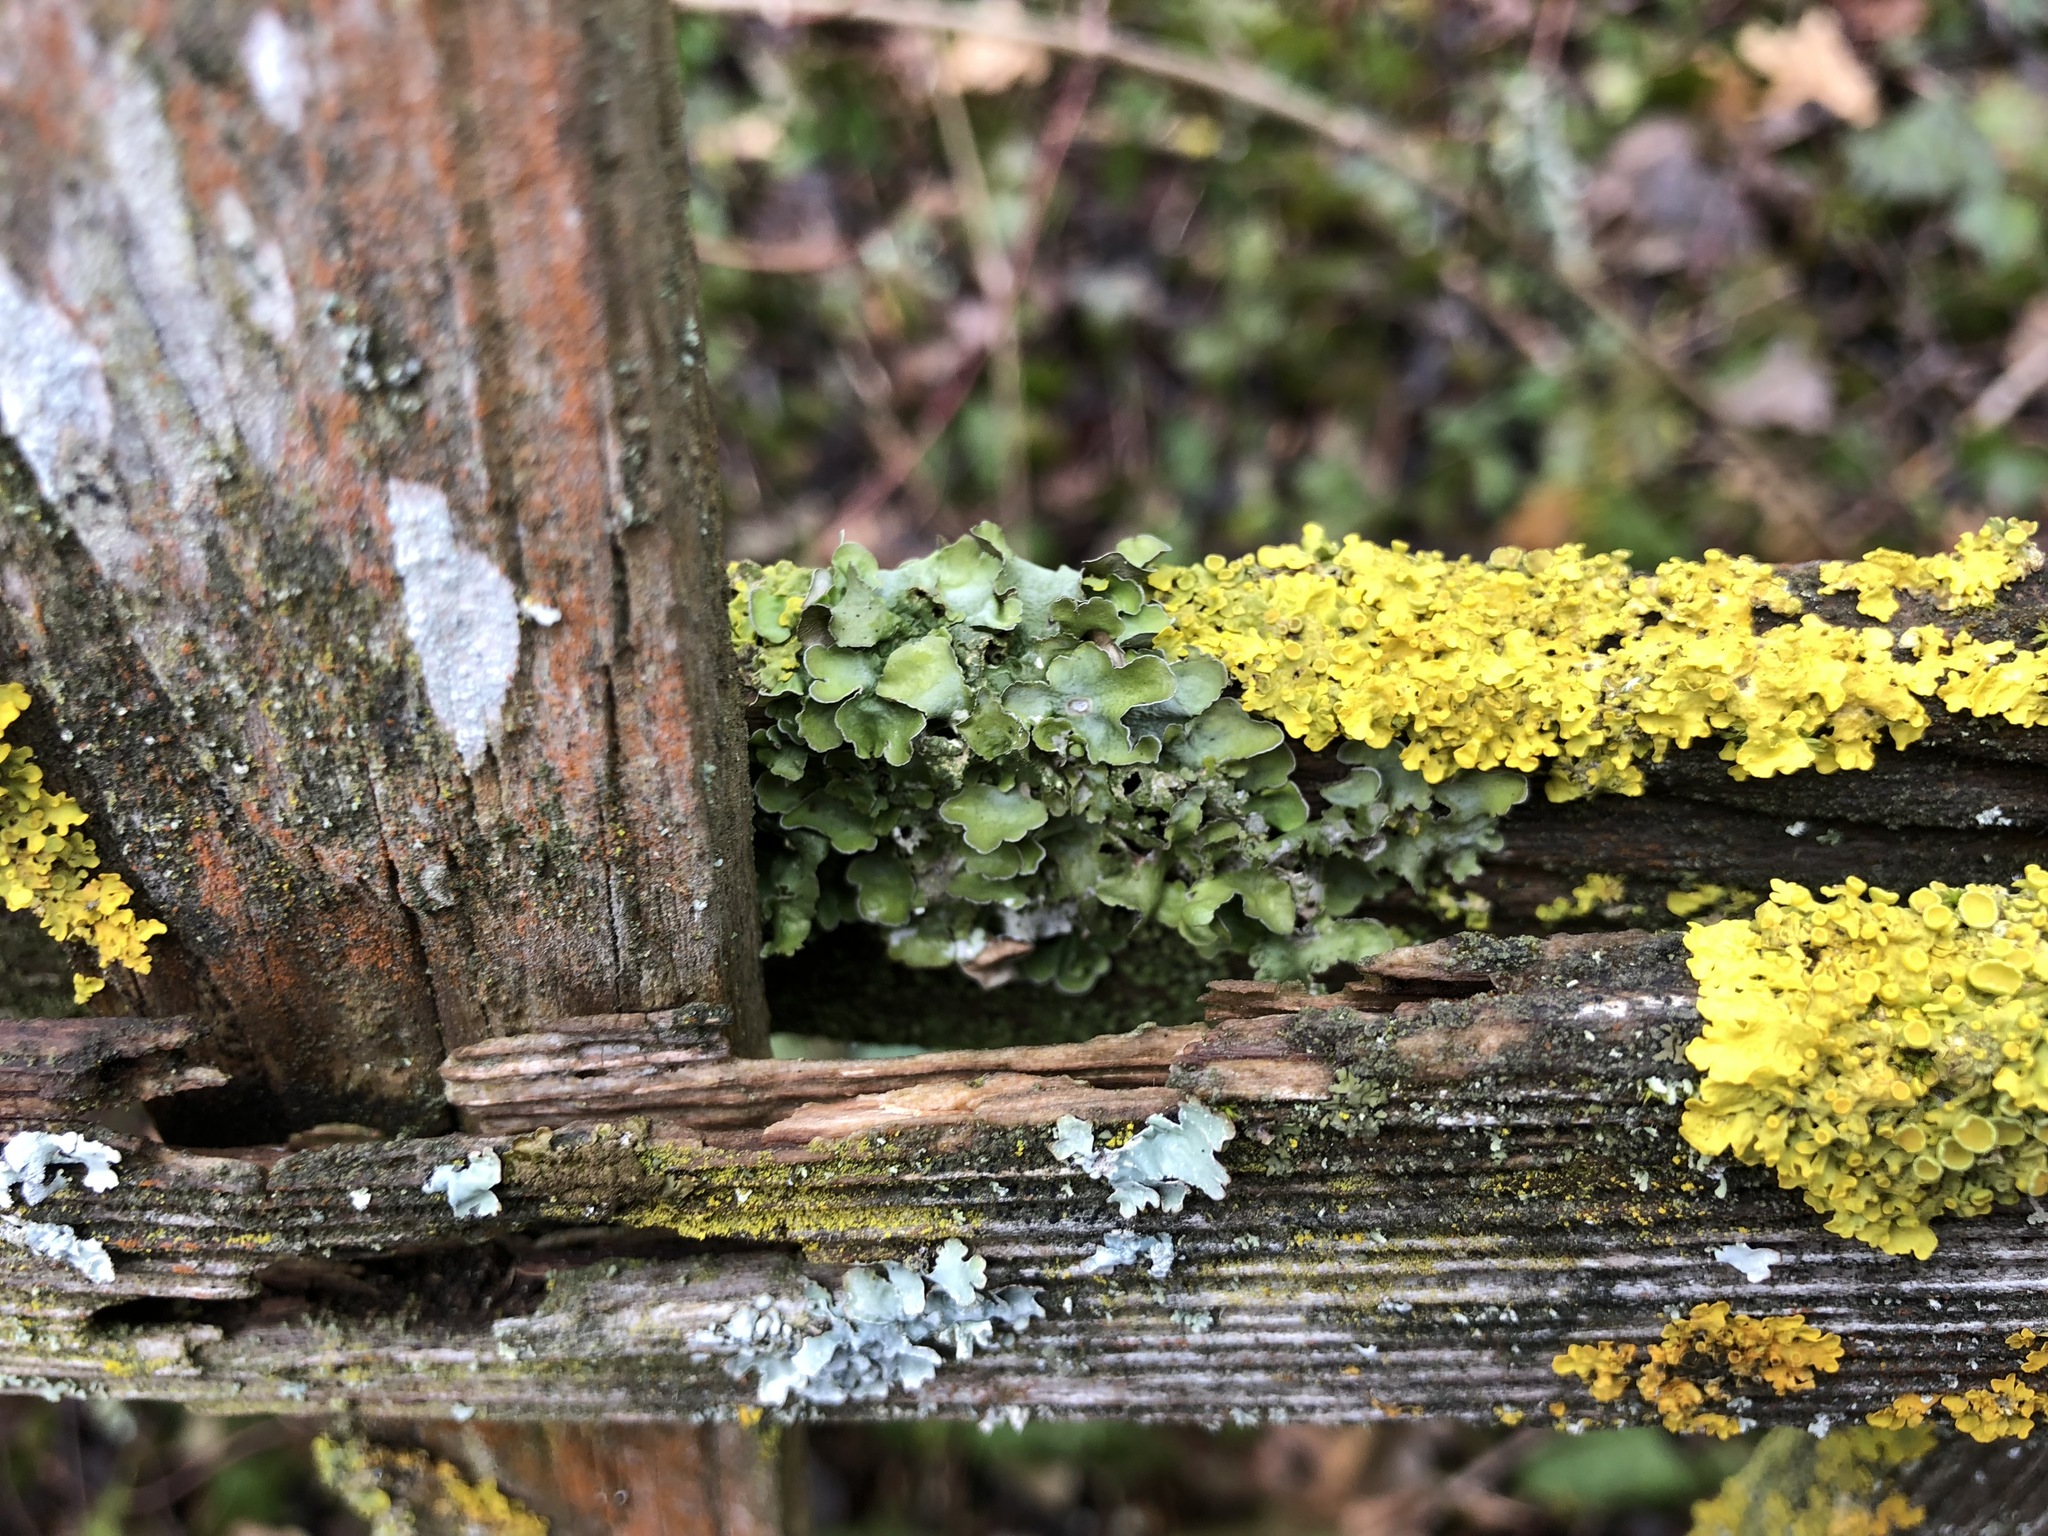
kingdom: Fungi
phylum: Ascomycota
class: Lecanoromycetes
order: Lecanorales
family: Parmeliaceae
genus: Pleurosticta
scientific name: Pleurosticta acetabulum
